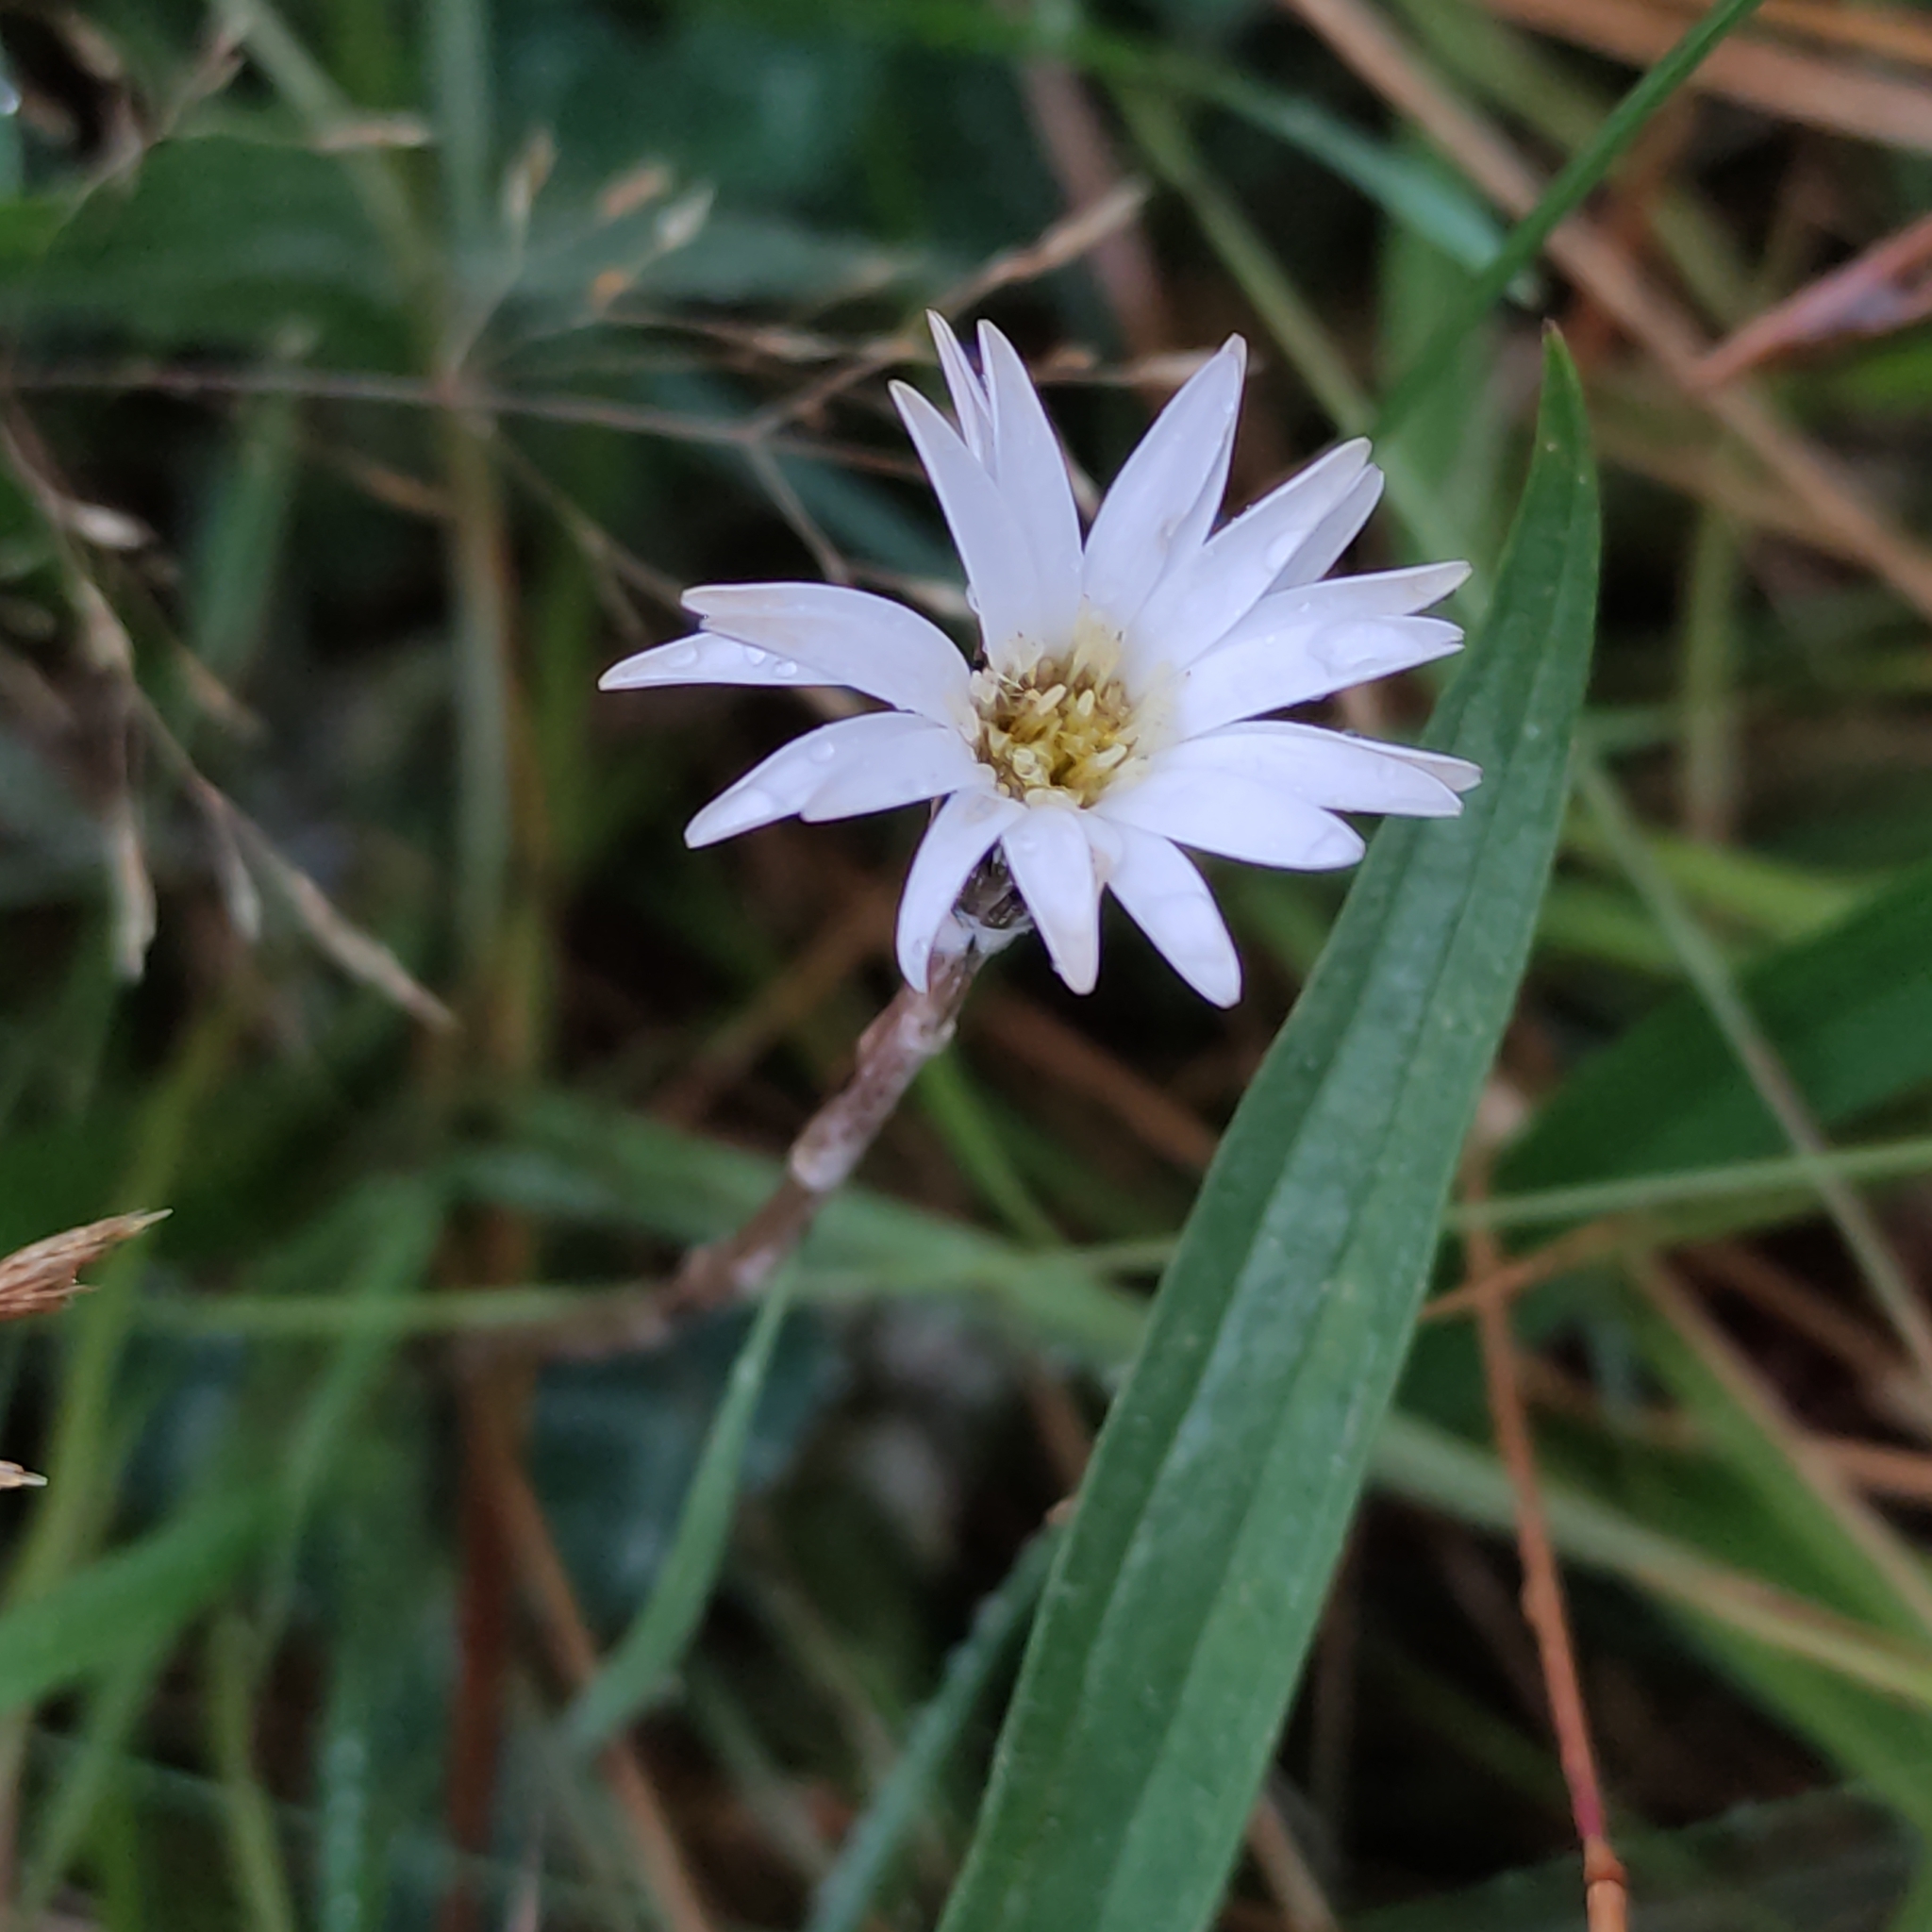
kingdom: Plantae
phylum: Tracheophyta
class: Magnoliopsida
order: Asterales
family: Asteraceae
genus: Celmisia
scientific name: Celmisia gracilenta
